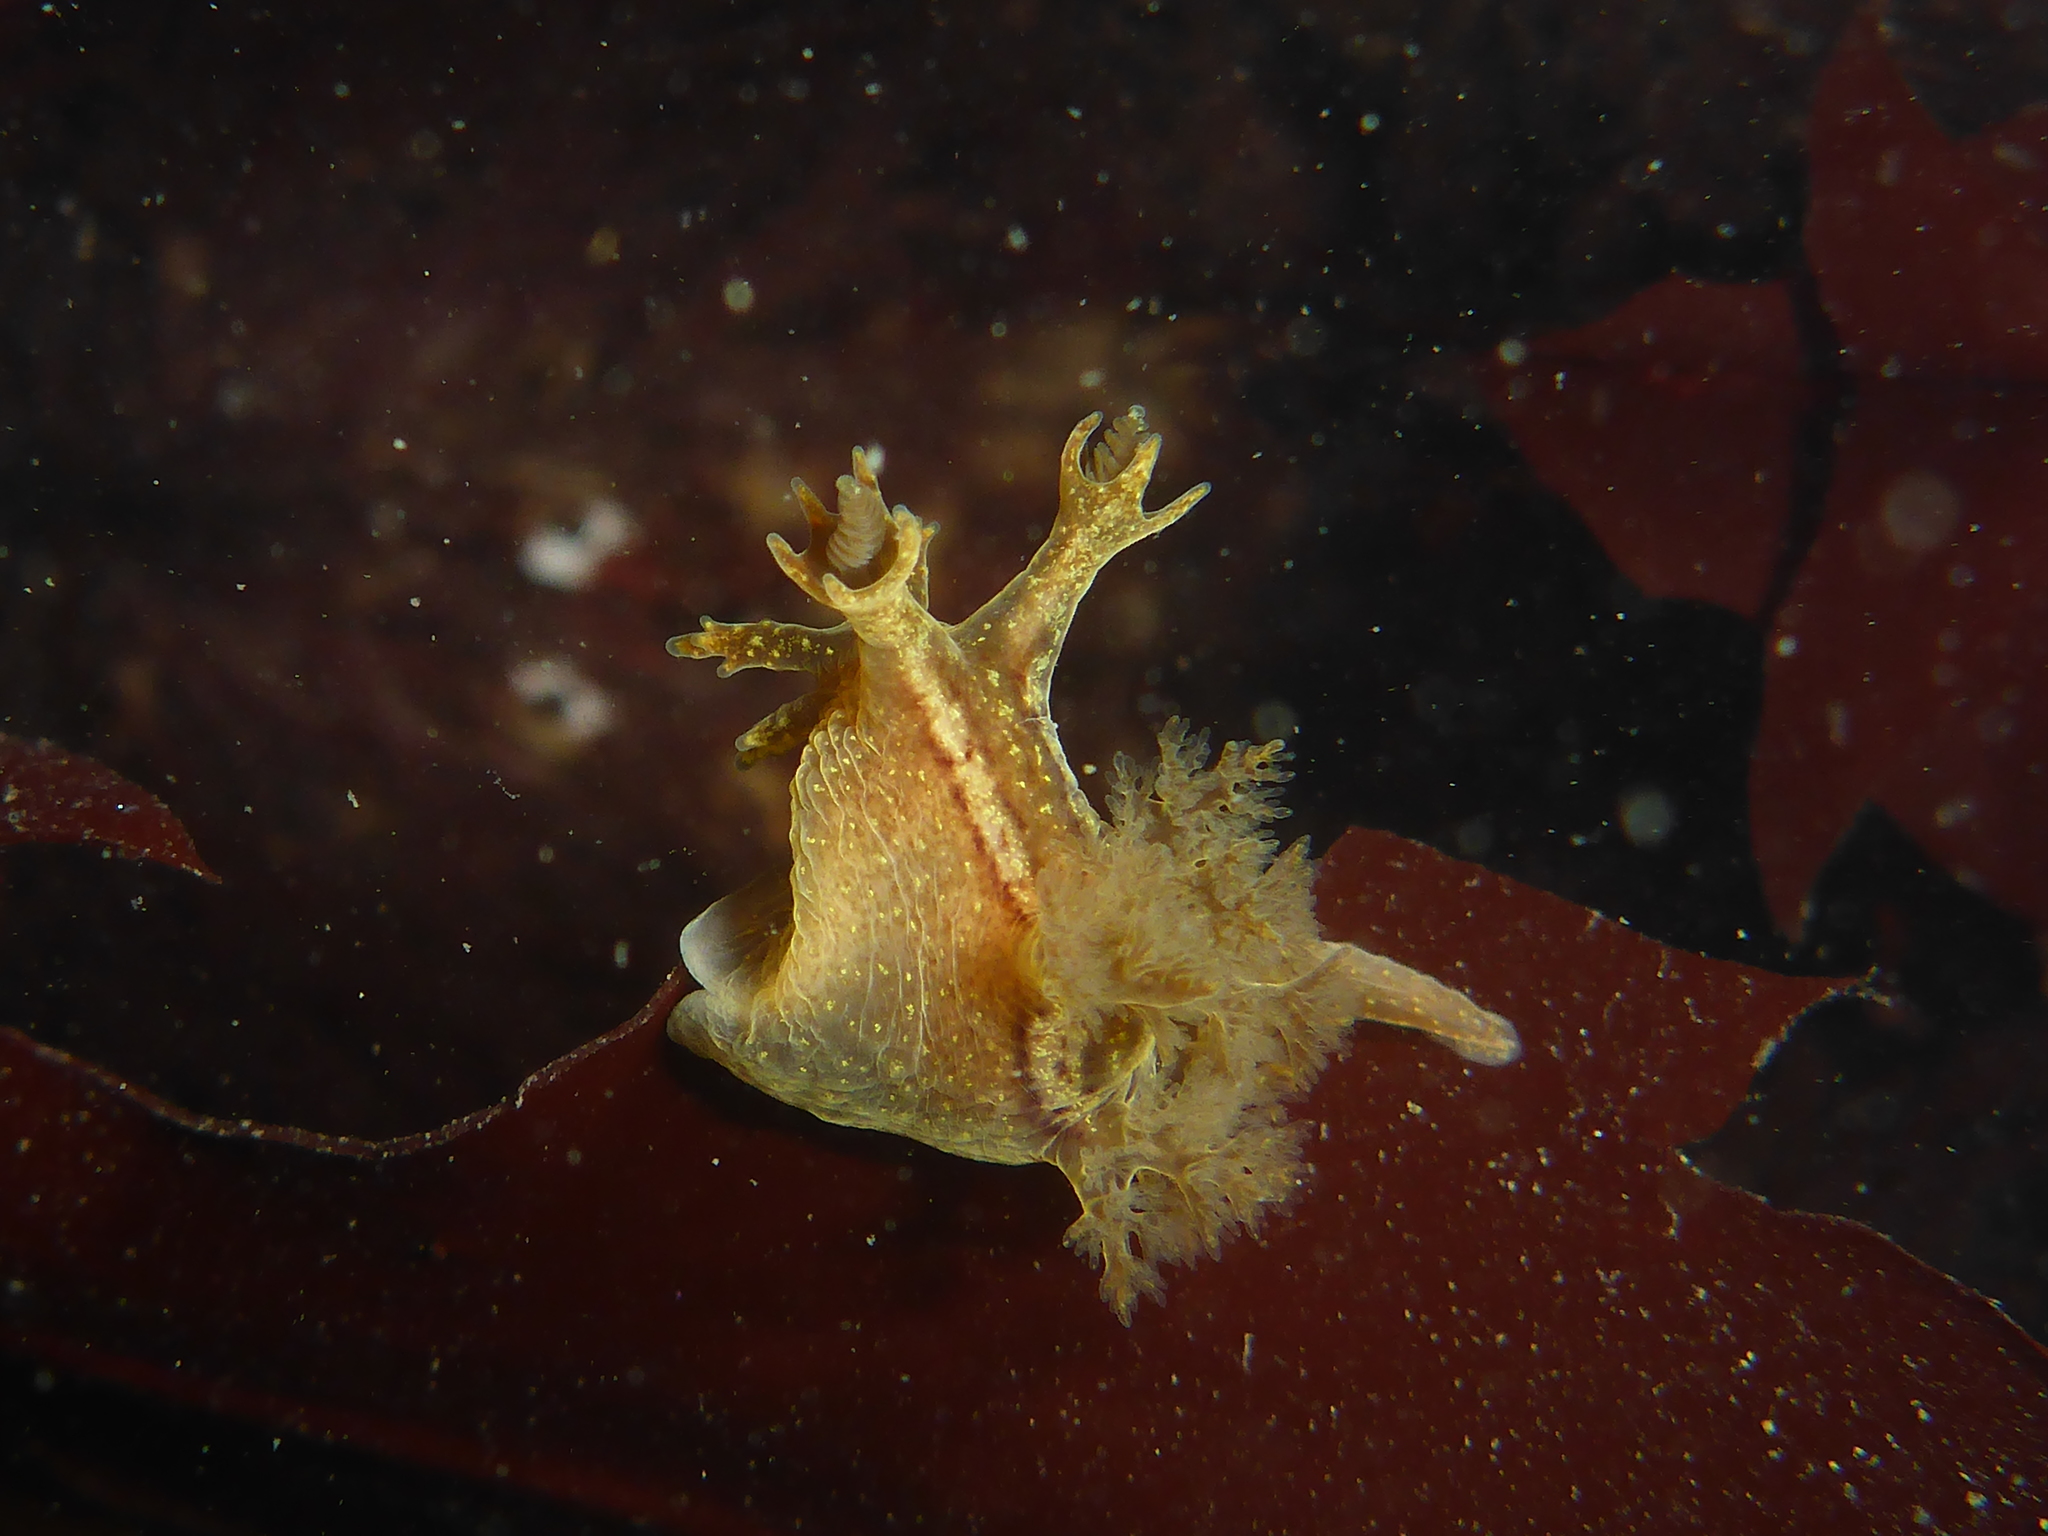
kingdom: Animalia
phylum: Mollusca
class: Gastropoda
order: Nudibranchia
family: Dendronotidae
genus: Dendronotus
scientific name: Dendronotus subramosus
